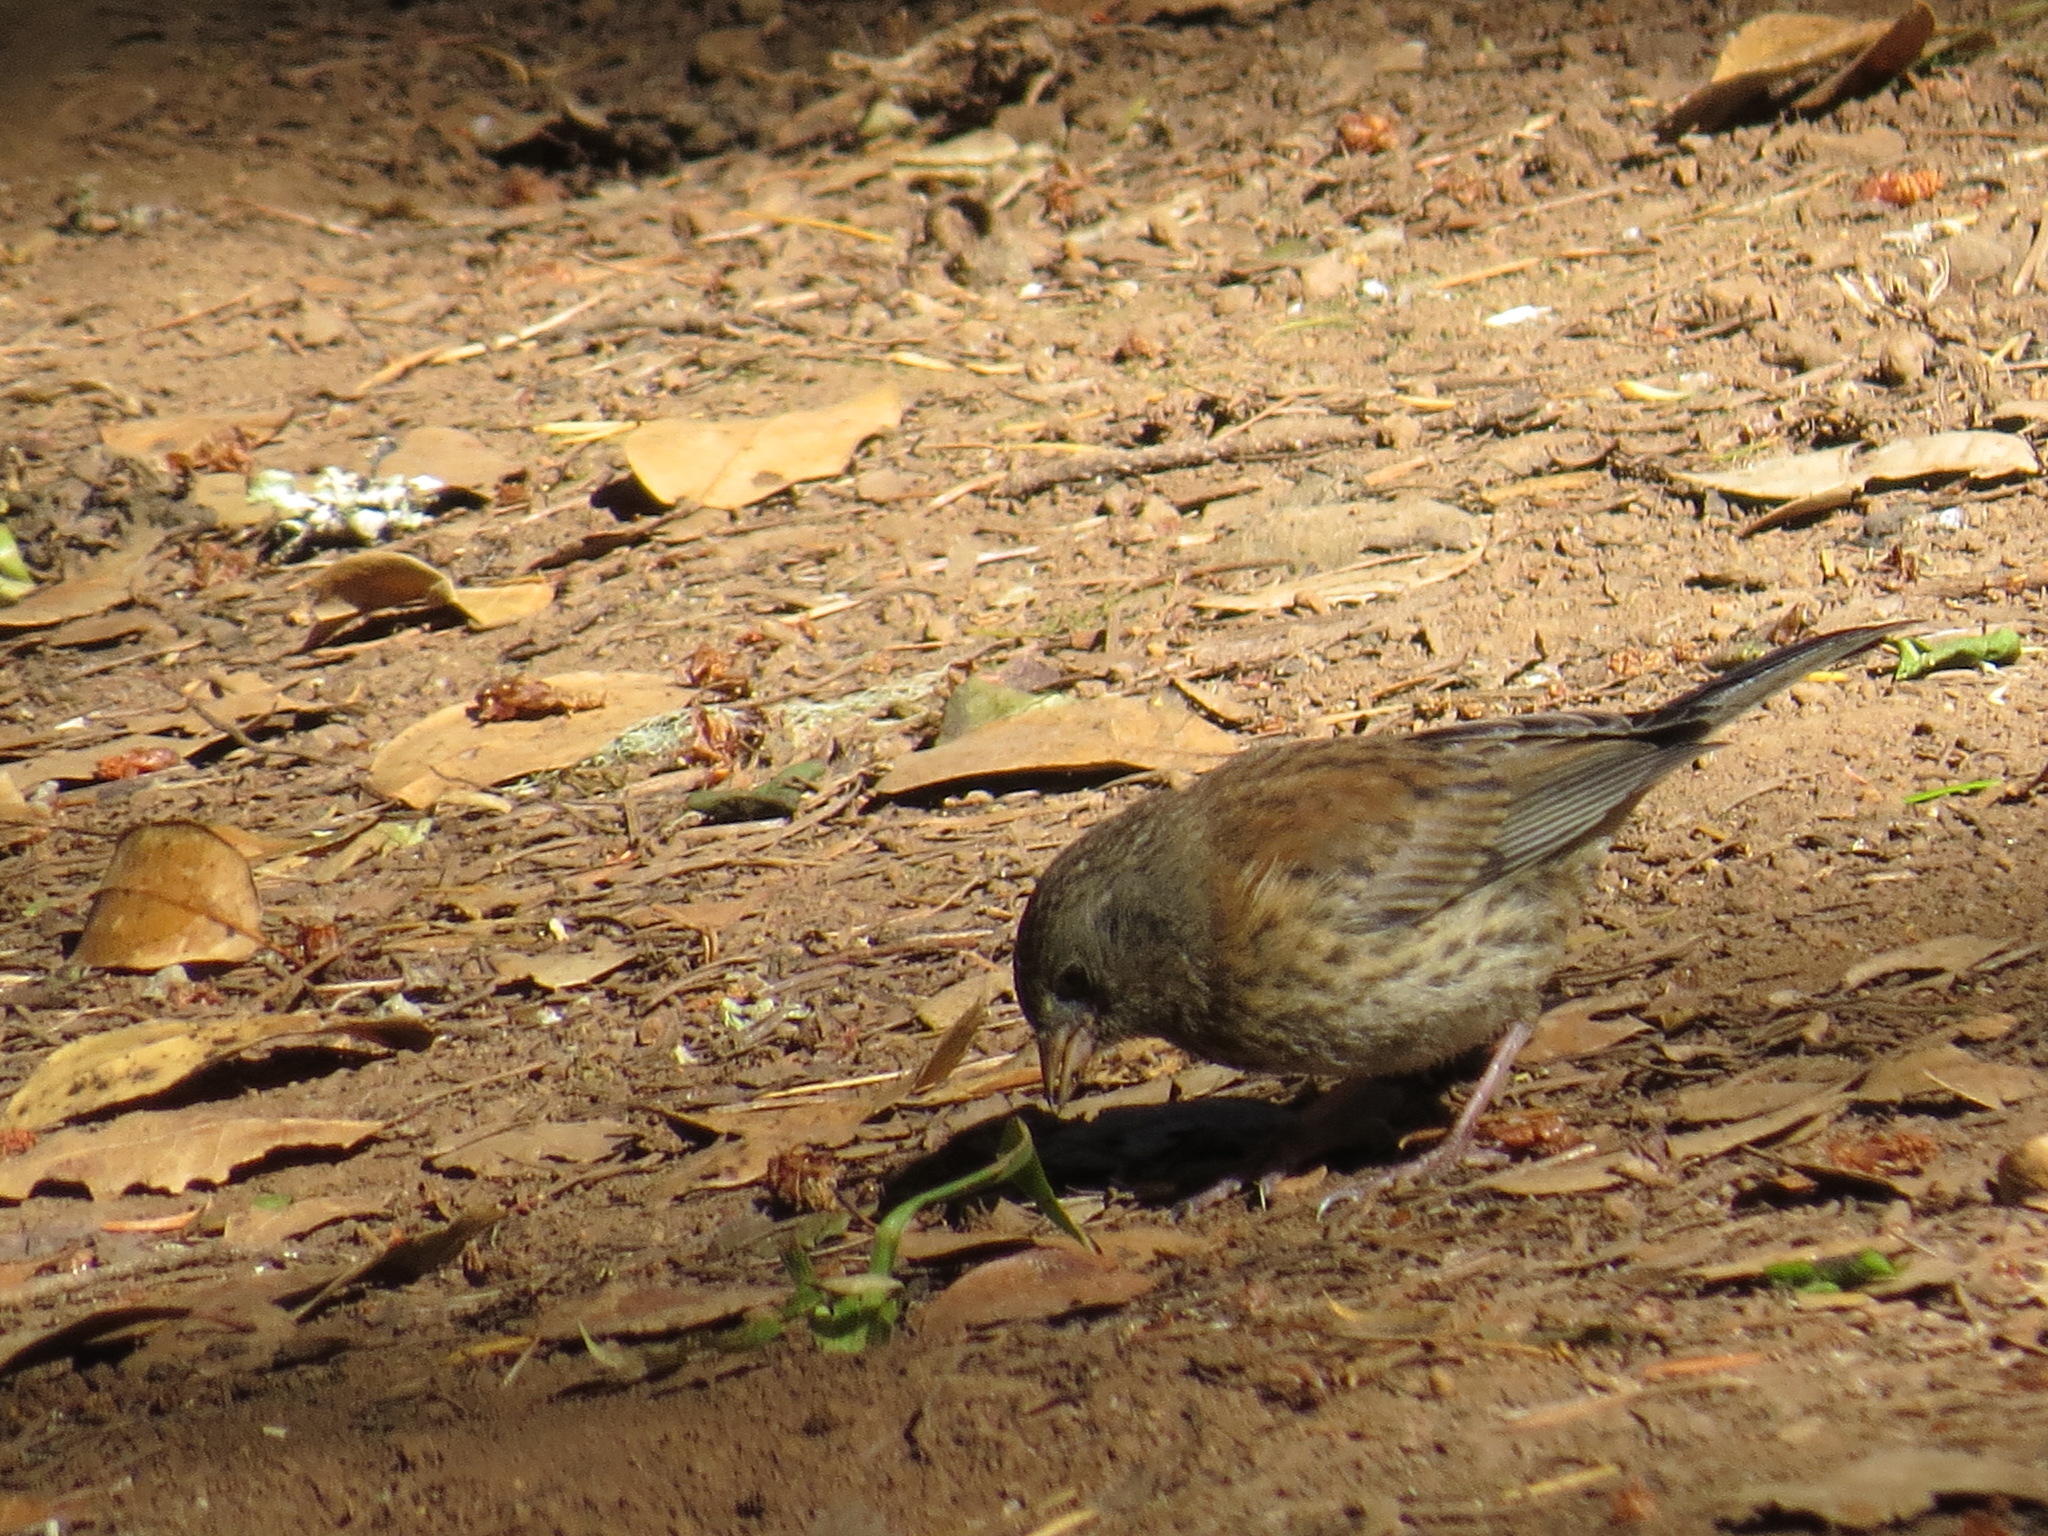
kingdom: Animalia
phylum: Chordata
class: Aves
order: Passeriformes
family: Passerellidae
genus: Junco
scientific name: Junco hyemalis
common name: Dark-eyed junco
